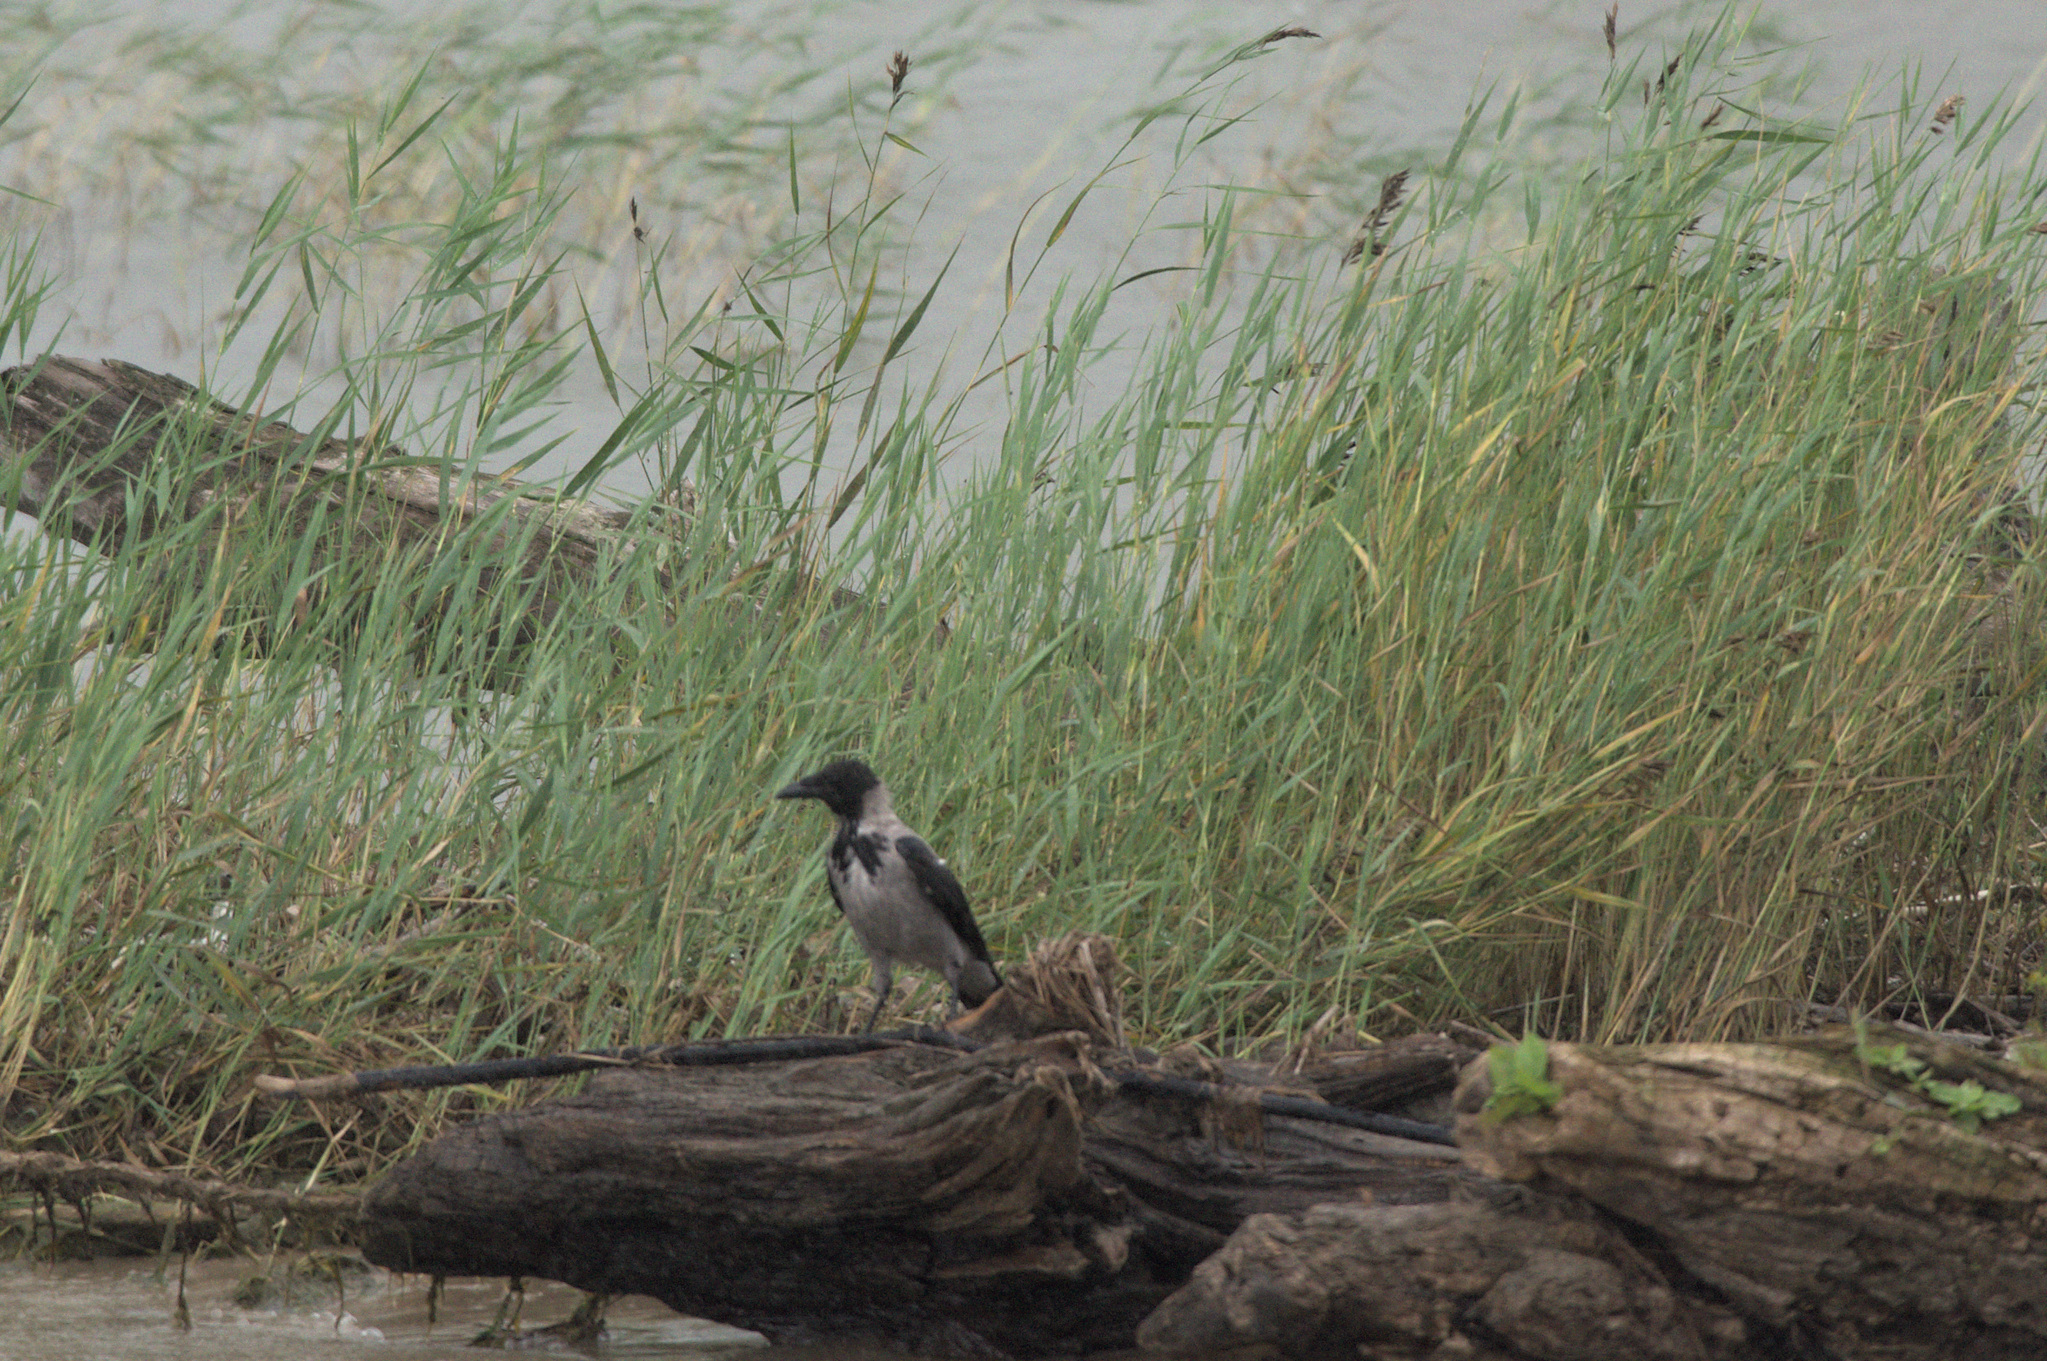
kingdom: Animalia
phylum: Chordata
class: Aves
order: Passeriformes
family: Corvidae
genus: Corvus
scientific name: Corvus cornix
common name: Hooded crow
